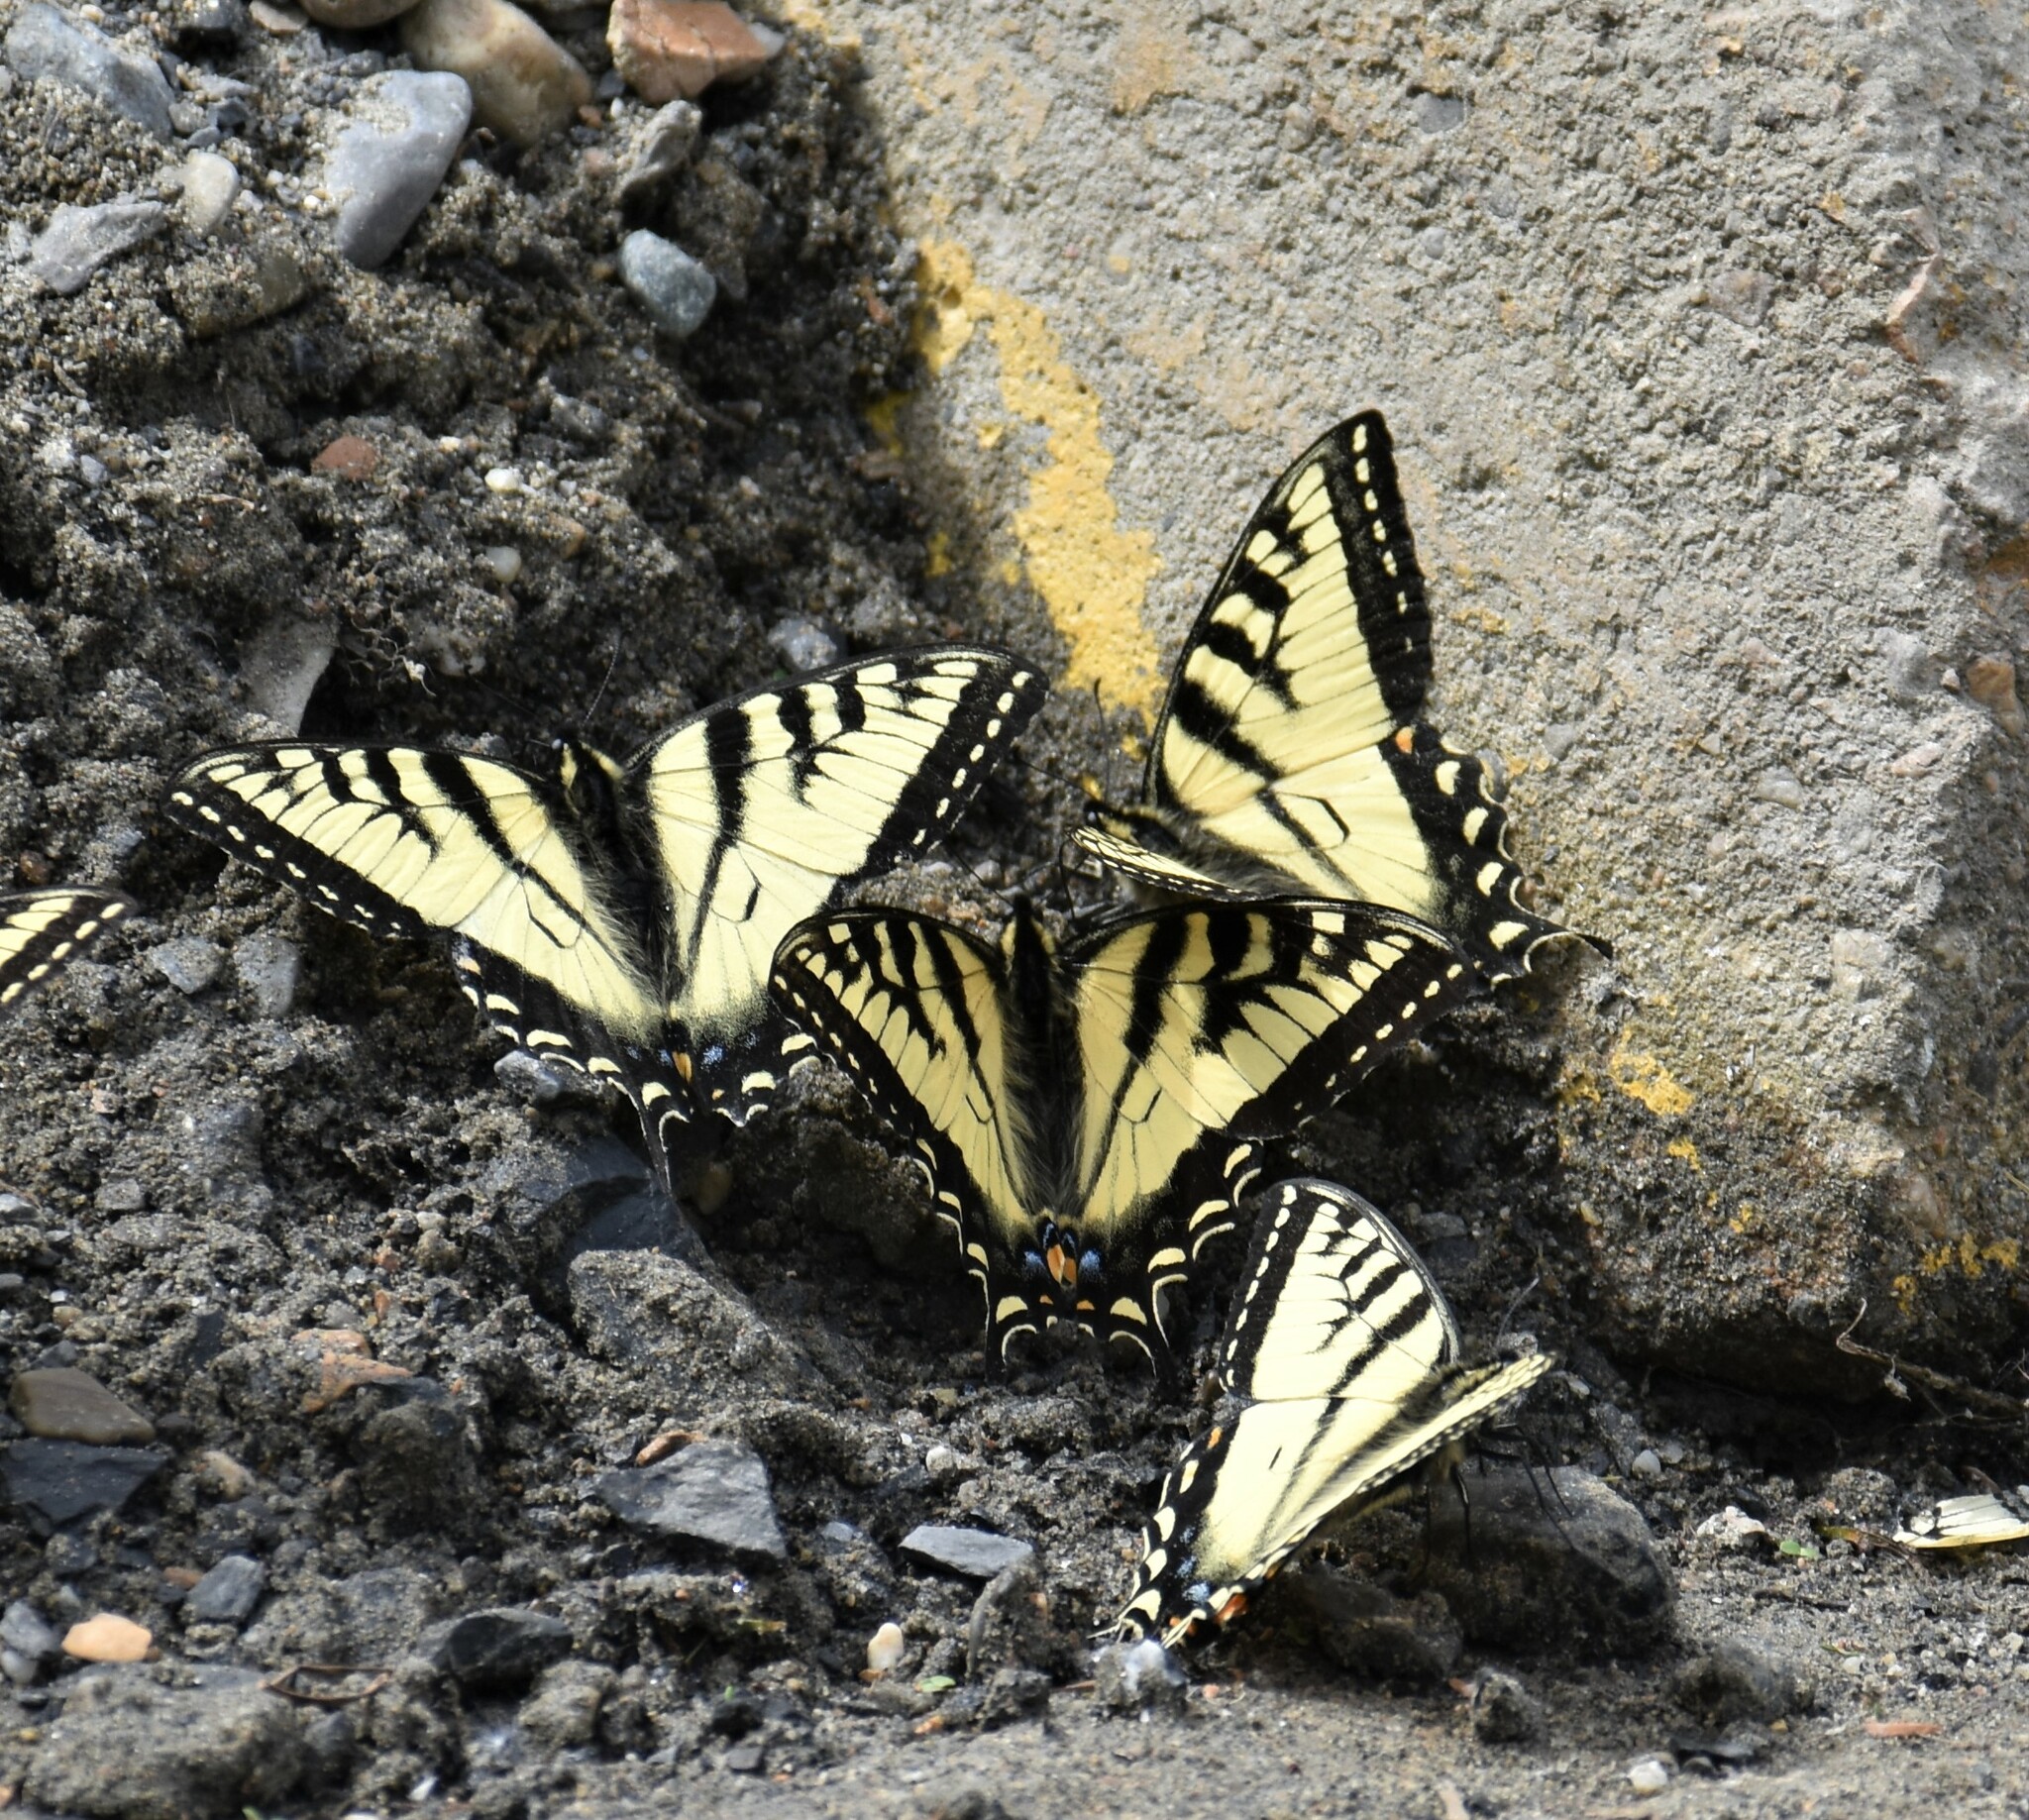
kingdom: Animalia
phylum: Arthropoda
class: Insecta
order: Lepidoptera
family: Papilionidae
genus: Papilio
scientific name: Papilio canadensis
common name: Canadian tiger swallowtail
